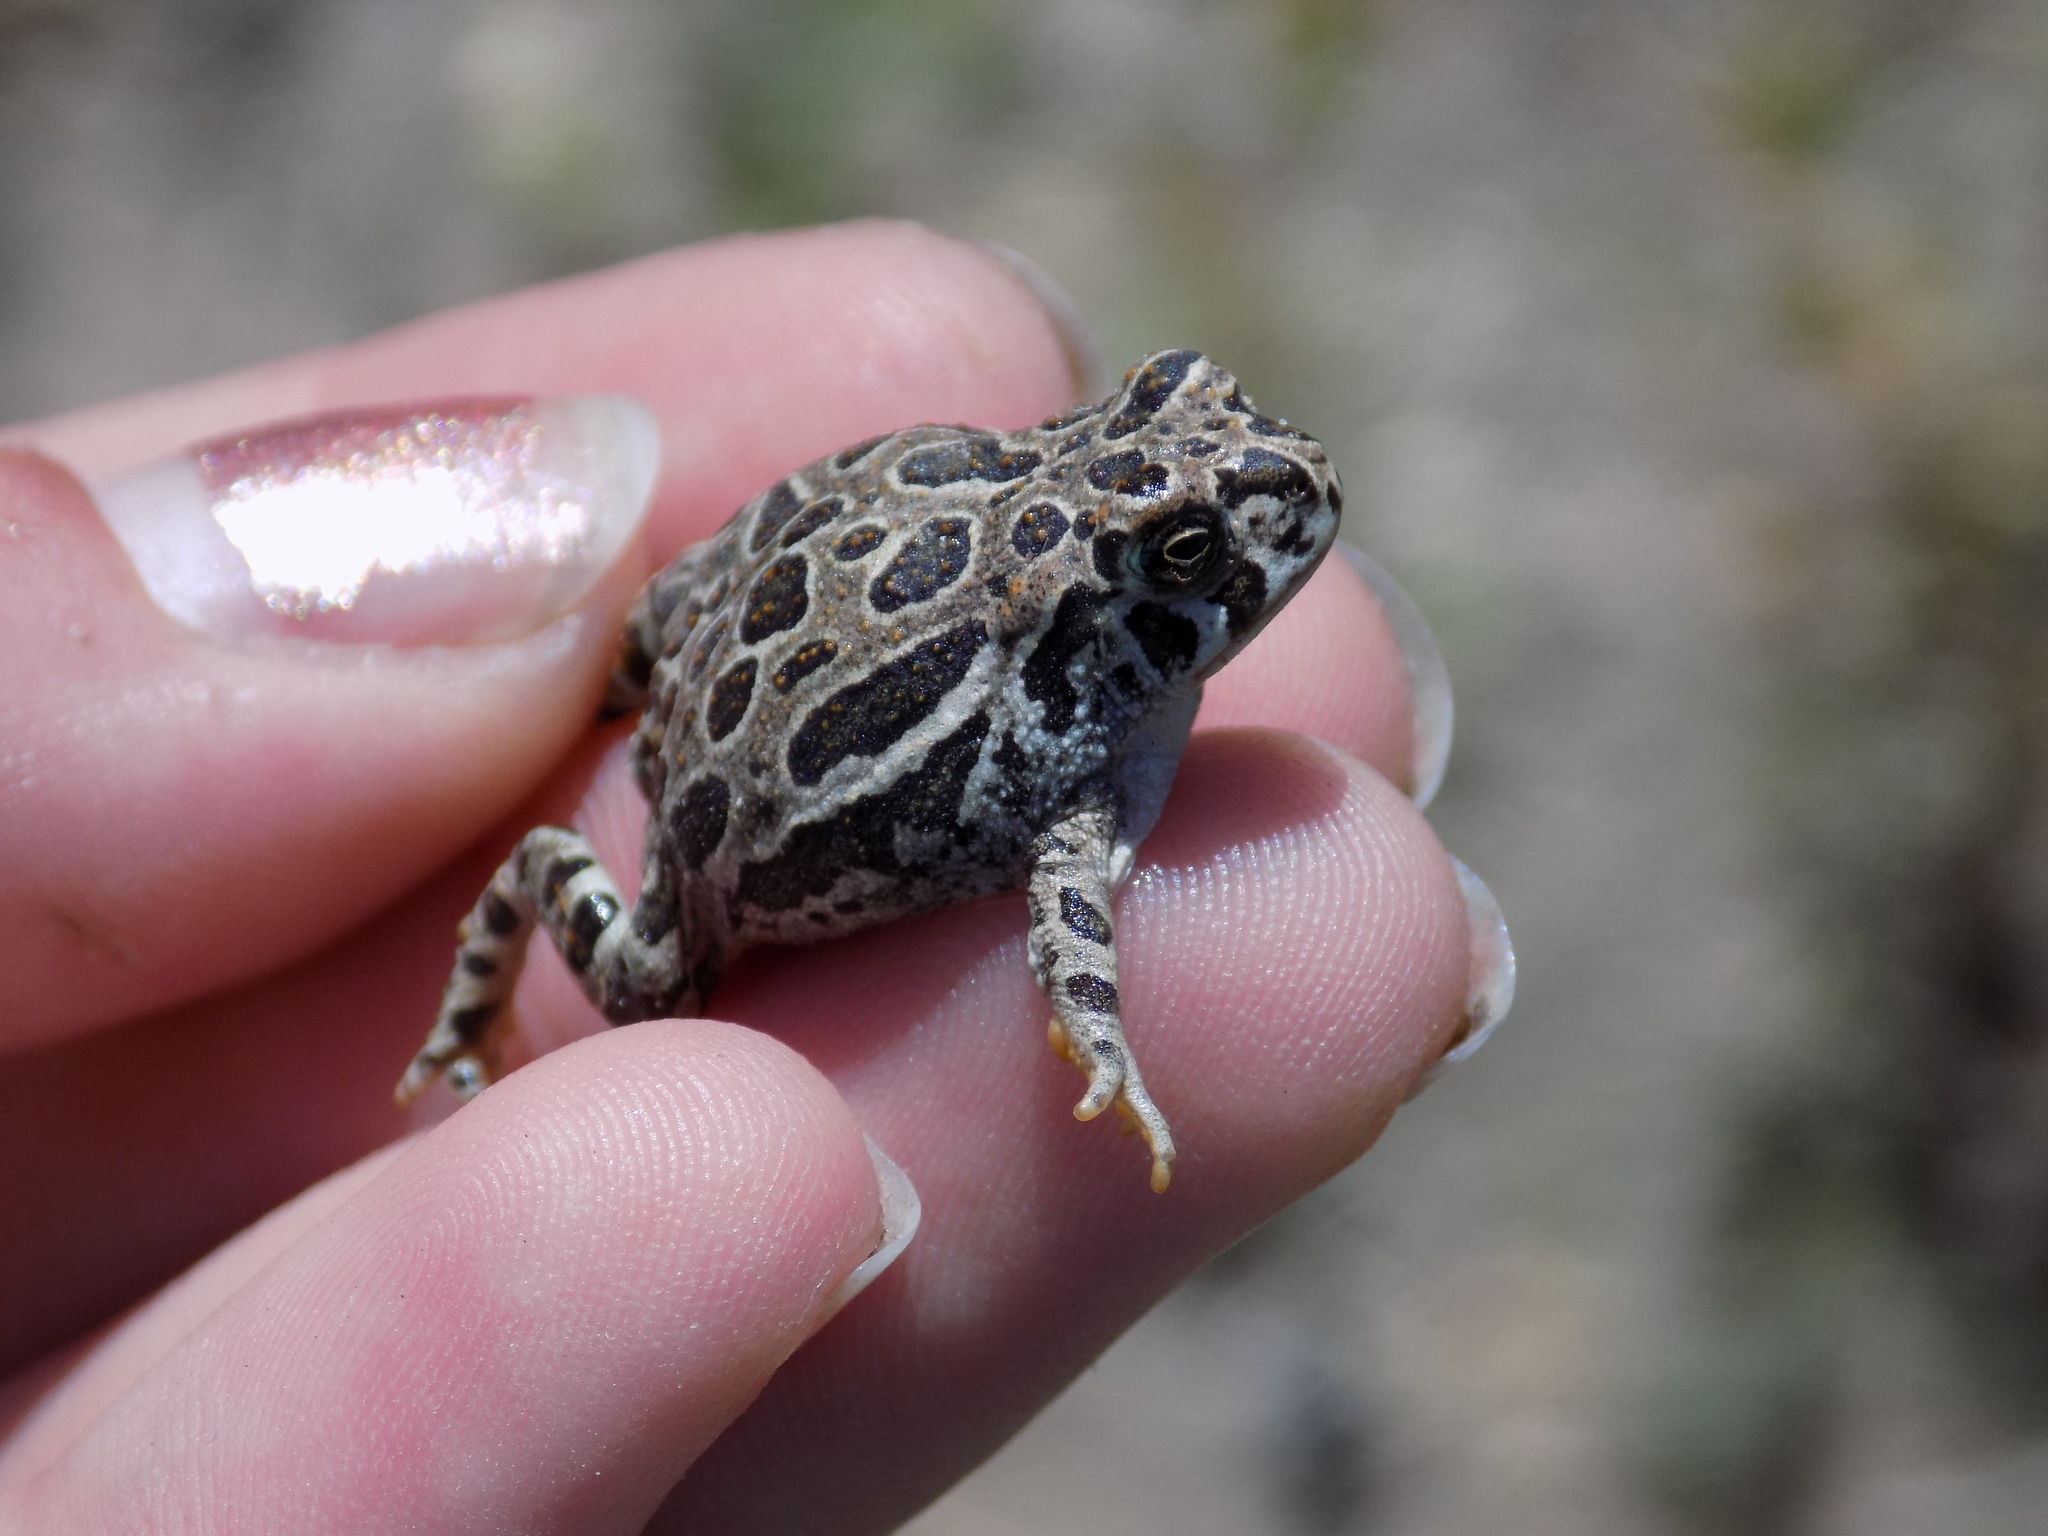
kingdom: Animalia
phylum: Chordata
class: Amphibia
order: Anura
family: Bufonidae
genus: Anaxyrus
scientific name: Anaxyrus cognatus
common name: Great plains toad
